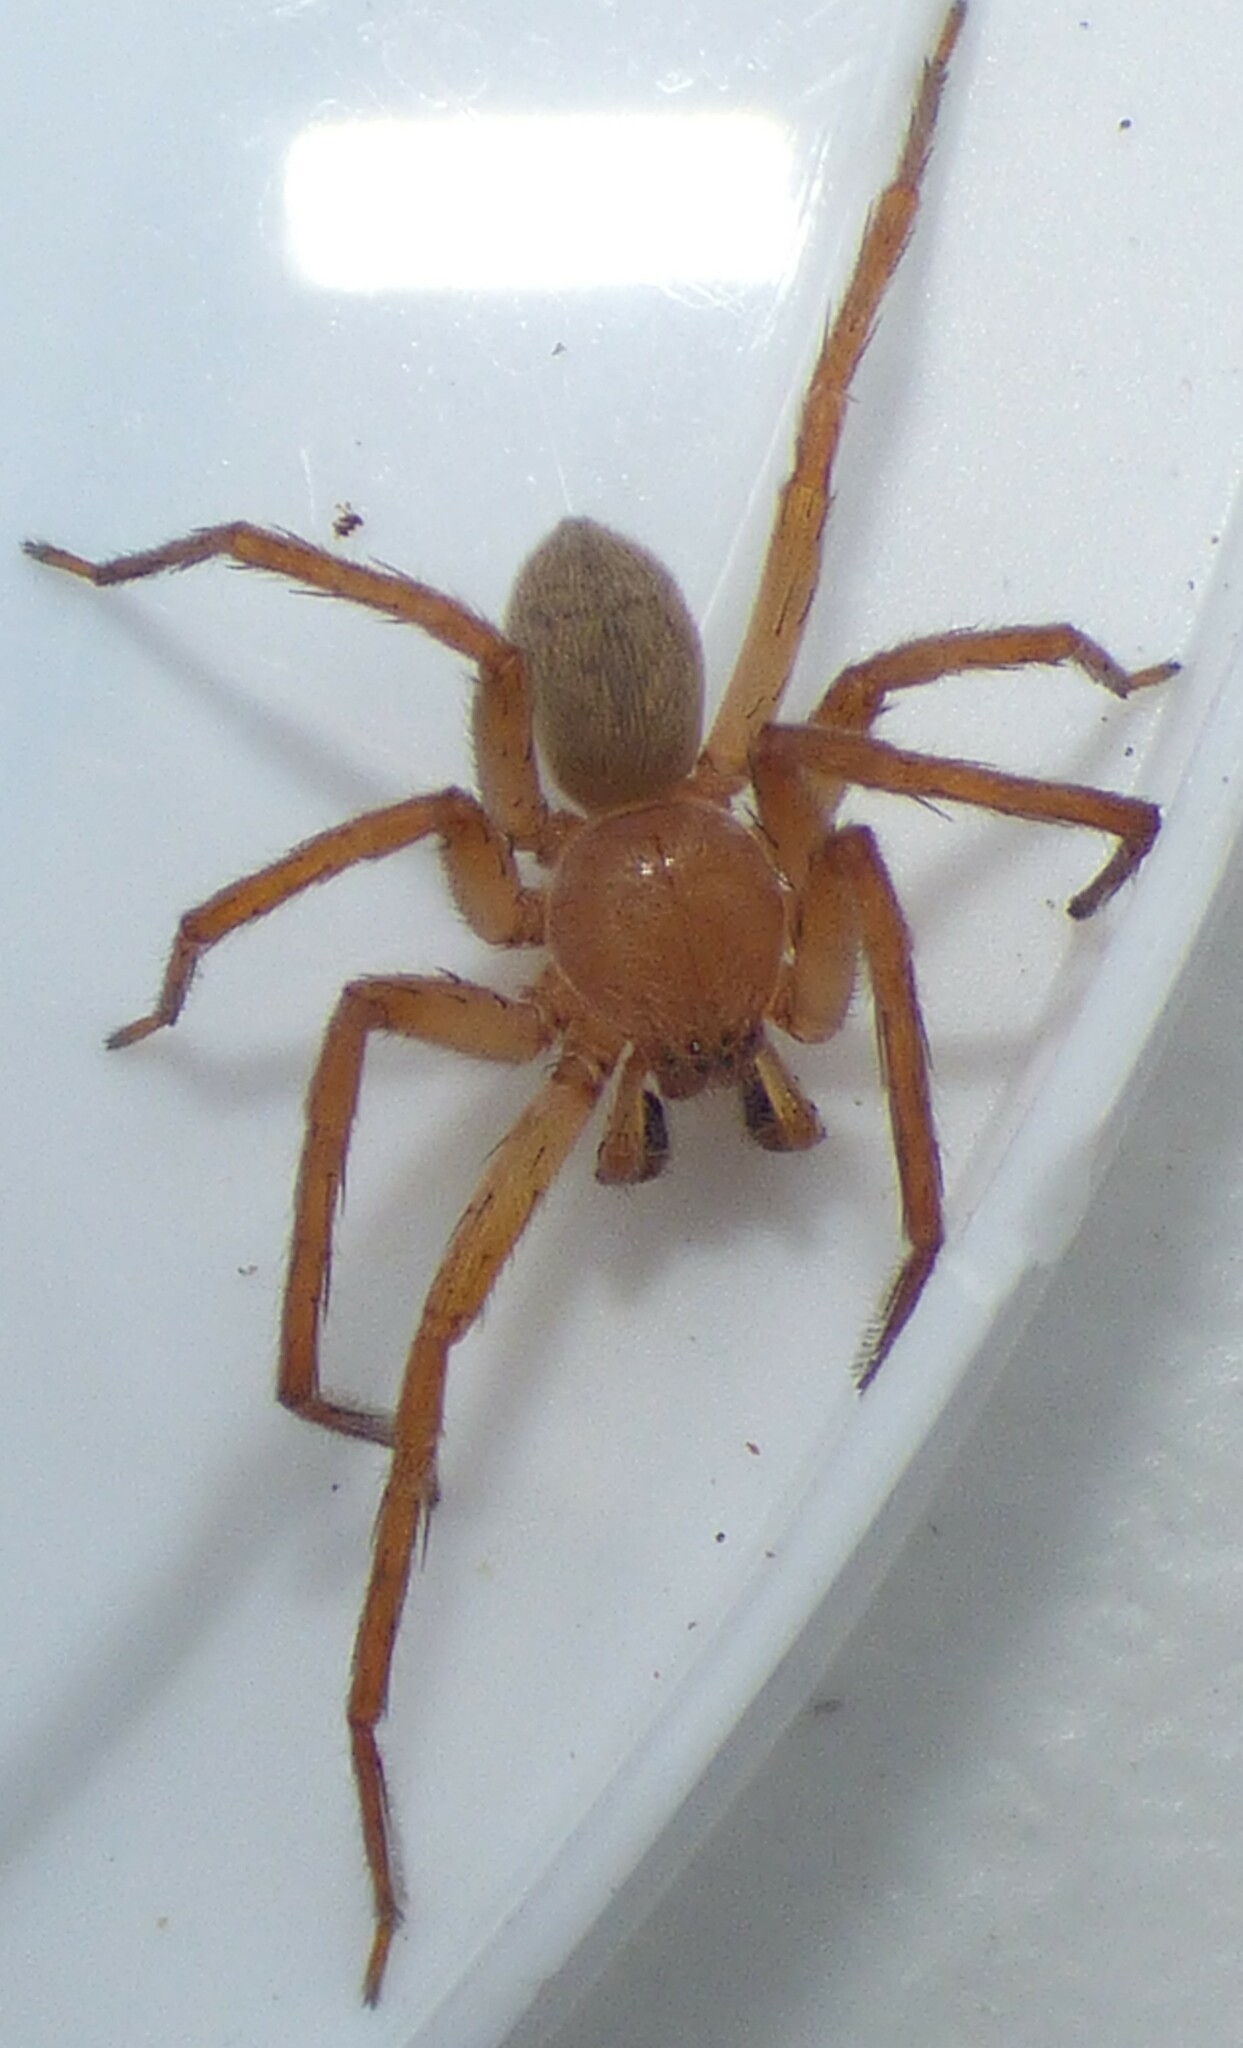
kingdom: Animalia
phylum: Arthropoda
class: Arachnida
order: Araneae
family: Sparassidae
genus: Decaphora
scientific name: Decaphora cubana
